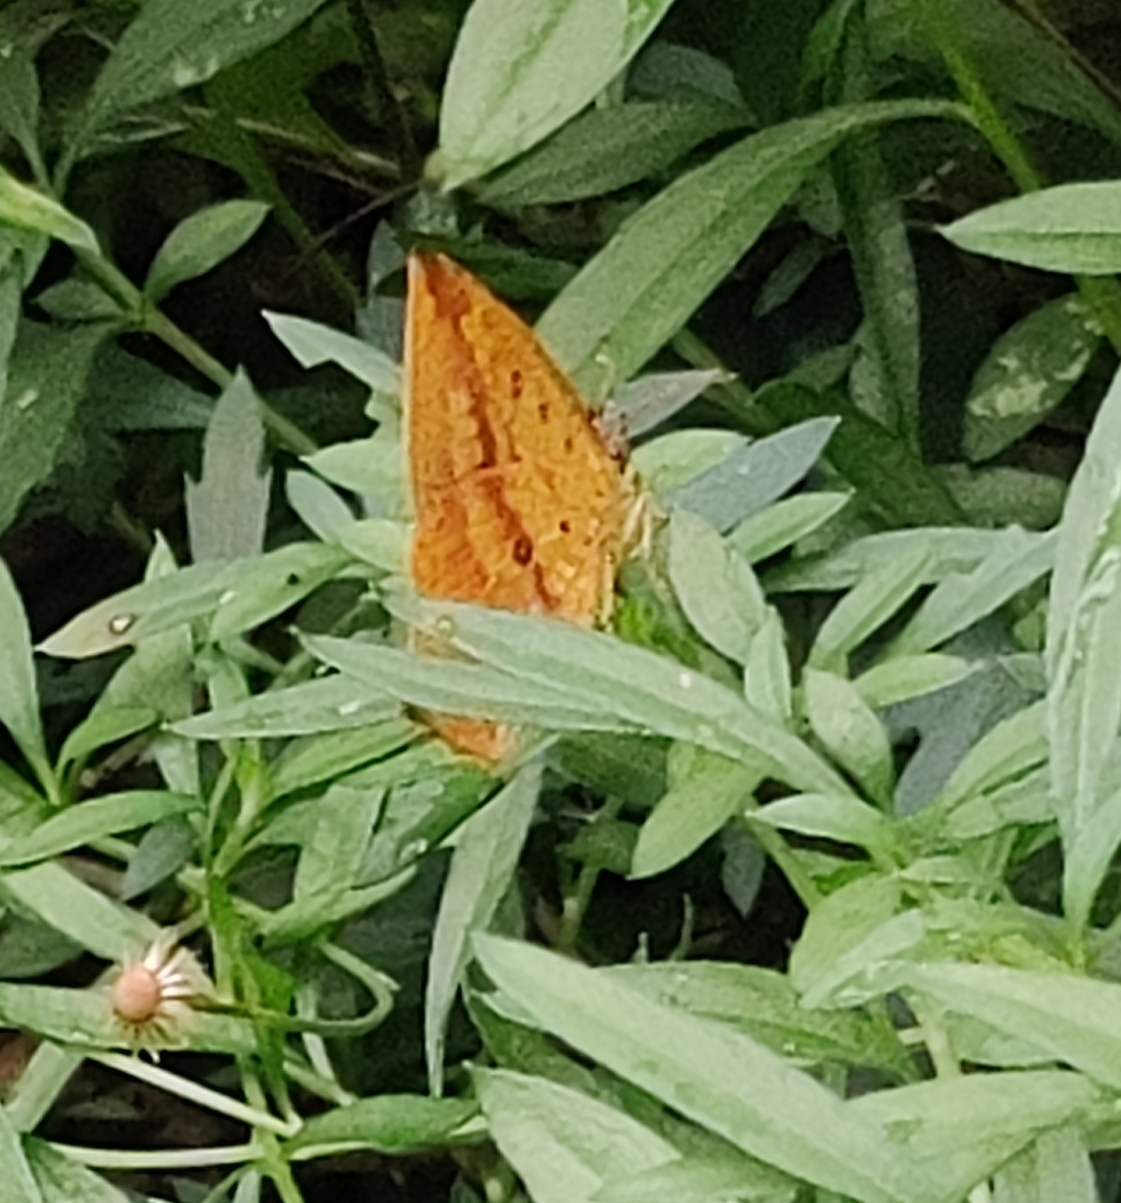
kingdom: Animalia
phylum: Arthropoda
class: Insecta
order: Lepidoptera
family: Callidulidae
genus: Tetragonus
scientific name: Tetragonus catamitus
